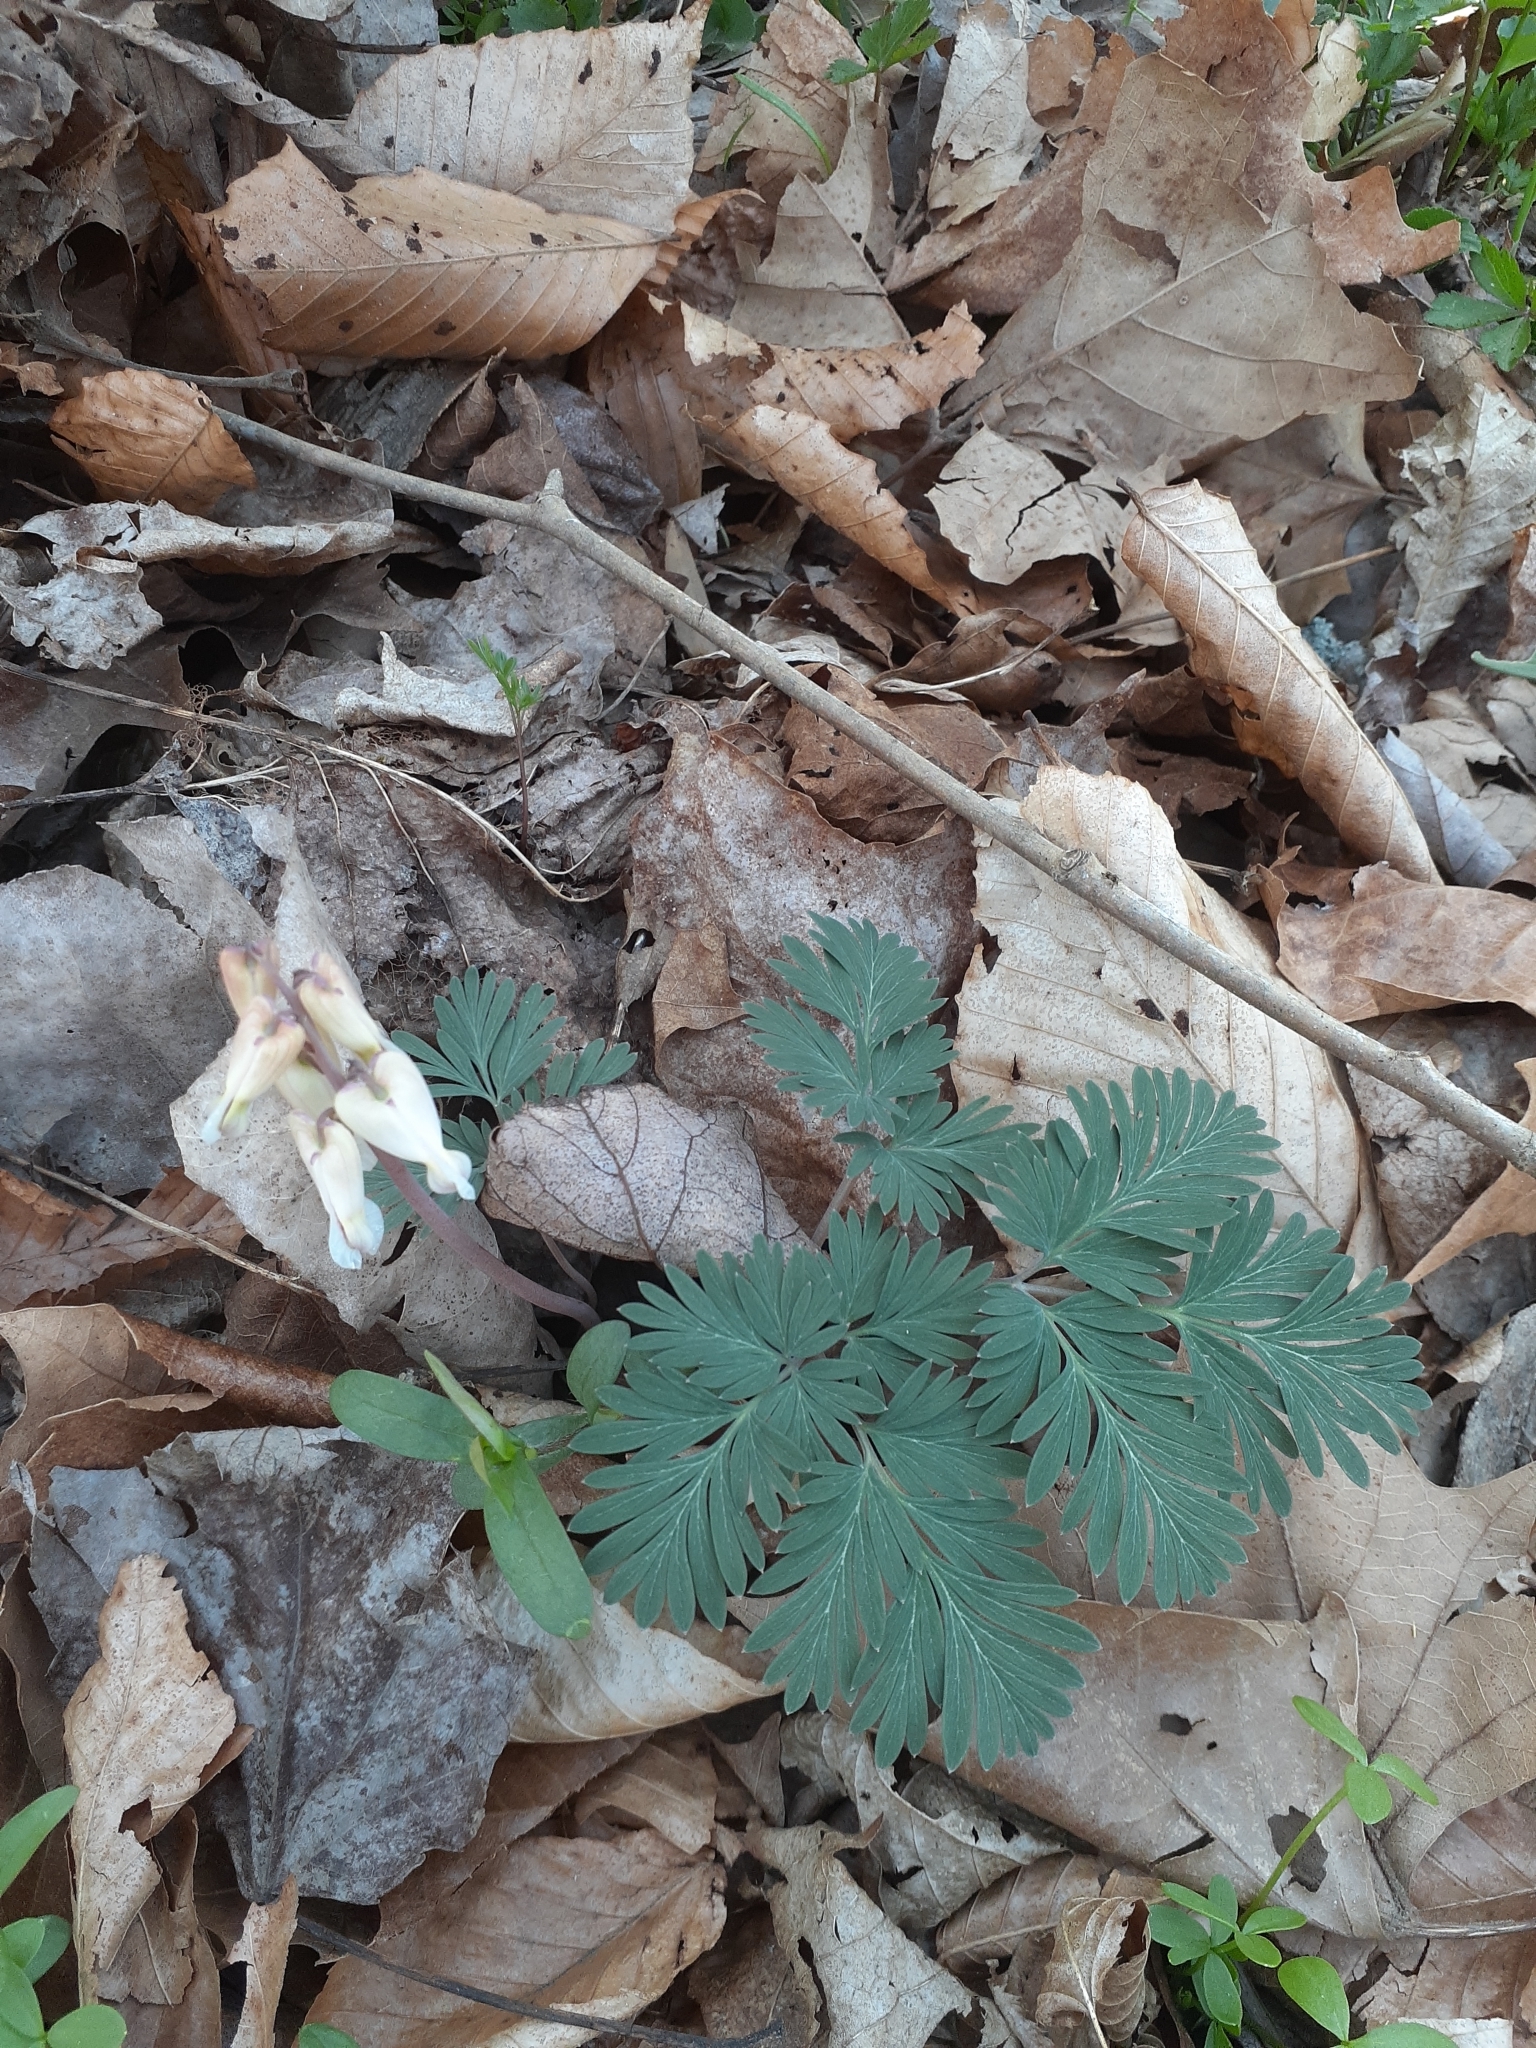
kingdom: Plantae
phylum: Tracheophyta
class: Magnoliopsida
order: Ranunculales
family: Papaveraceae
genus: Dicentra
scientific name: Dicentra canadensis
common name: Squirrel-corn
